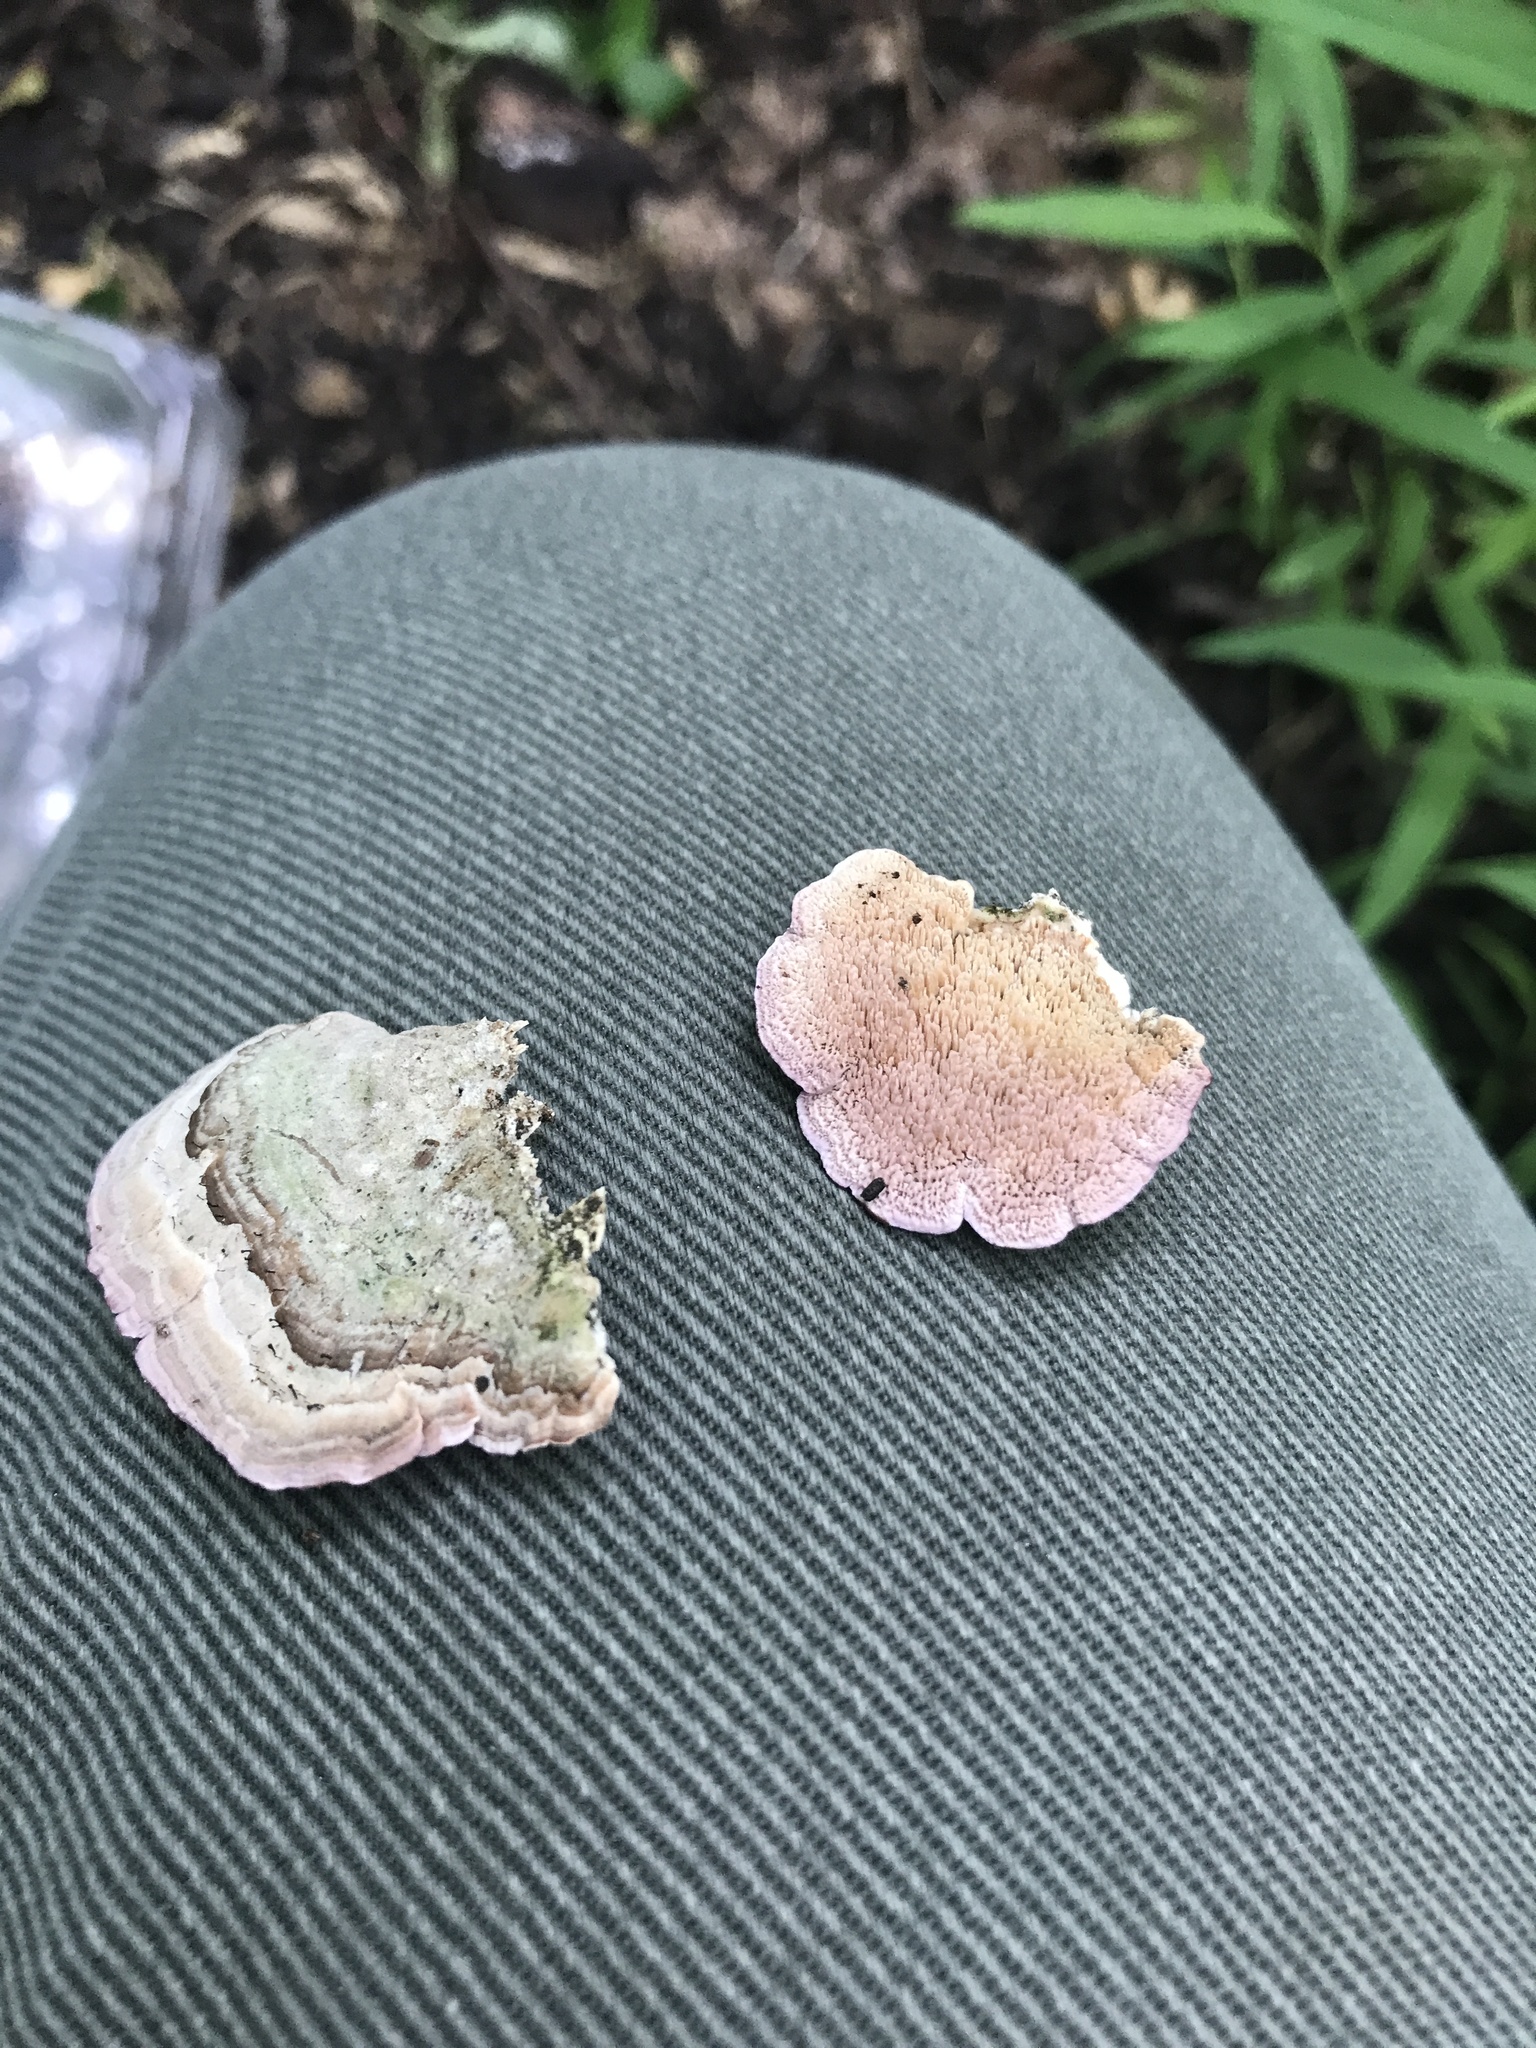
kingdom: Fungi
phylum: Basidiomycota
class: Agaricomycetes
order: Hymenochaetales
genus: Trichaptum
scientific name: Trichaptum biforme
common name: Violet-toothed polypore
